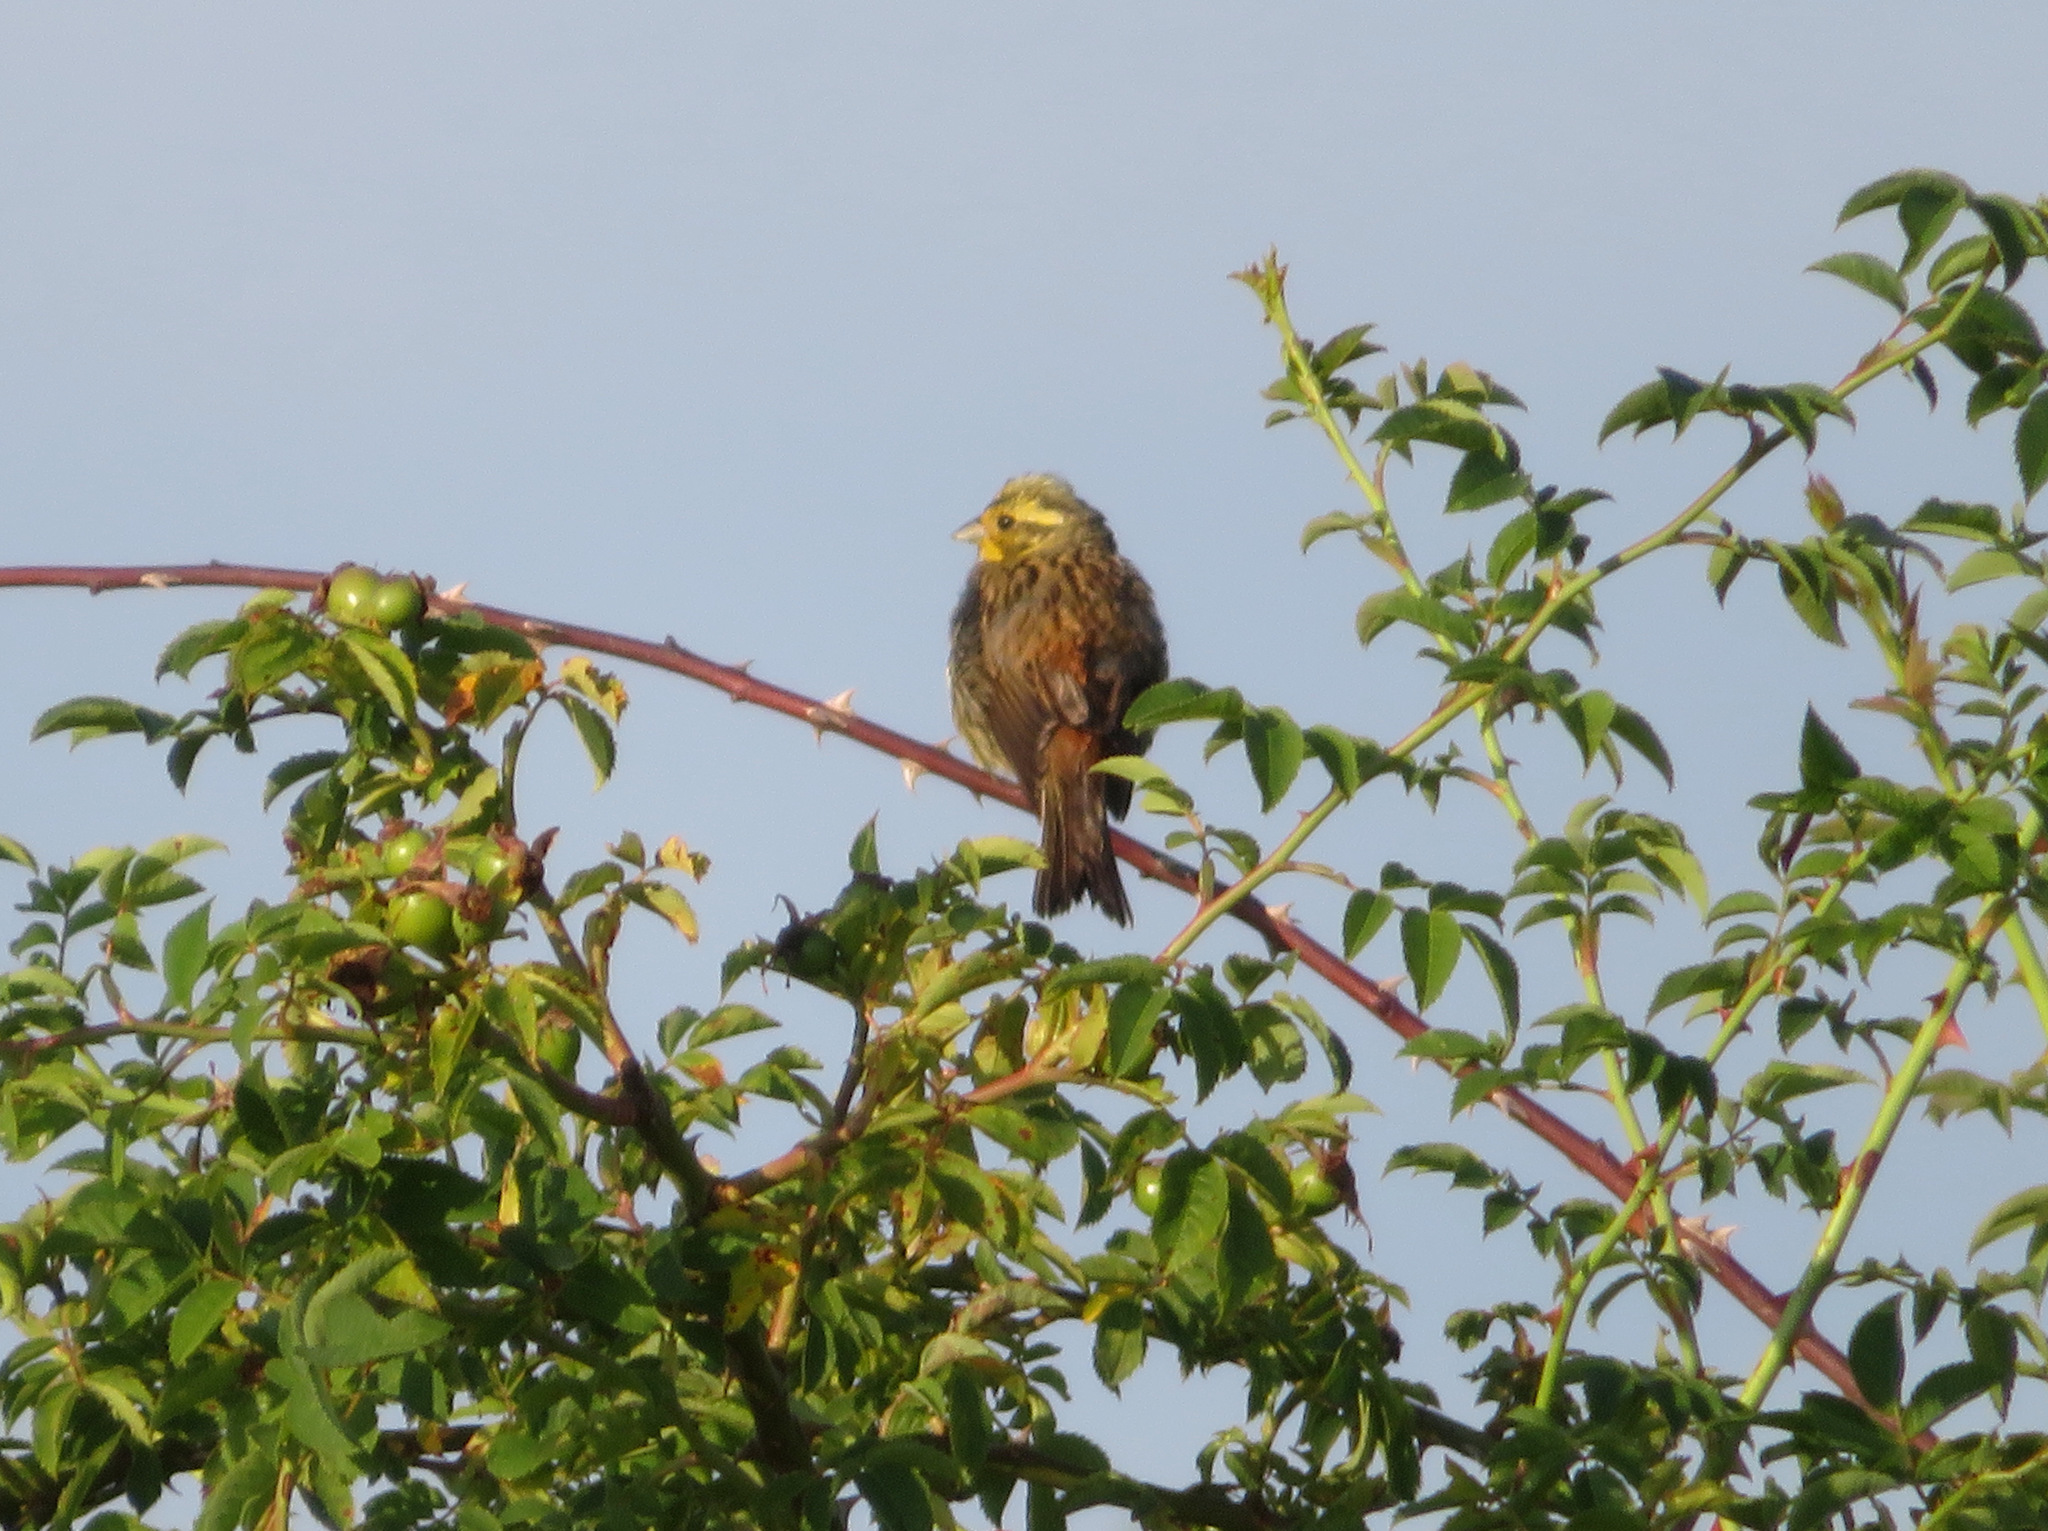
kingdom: Animalia
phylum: Chordata
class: Aves
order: Passeriformes
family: Emberizidae
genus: Emberiza
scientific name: Emberiza citrinella
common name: Yellowhammer
